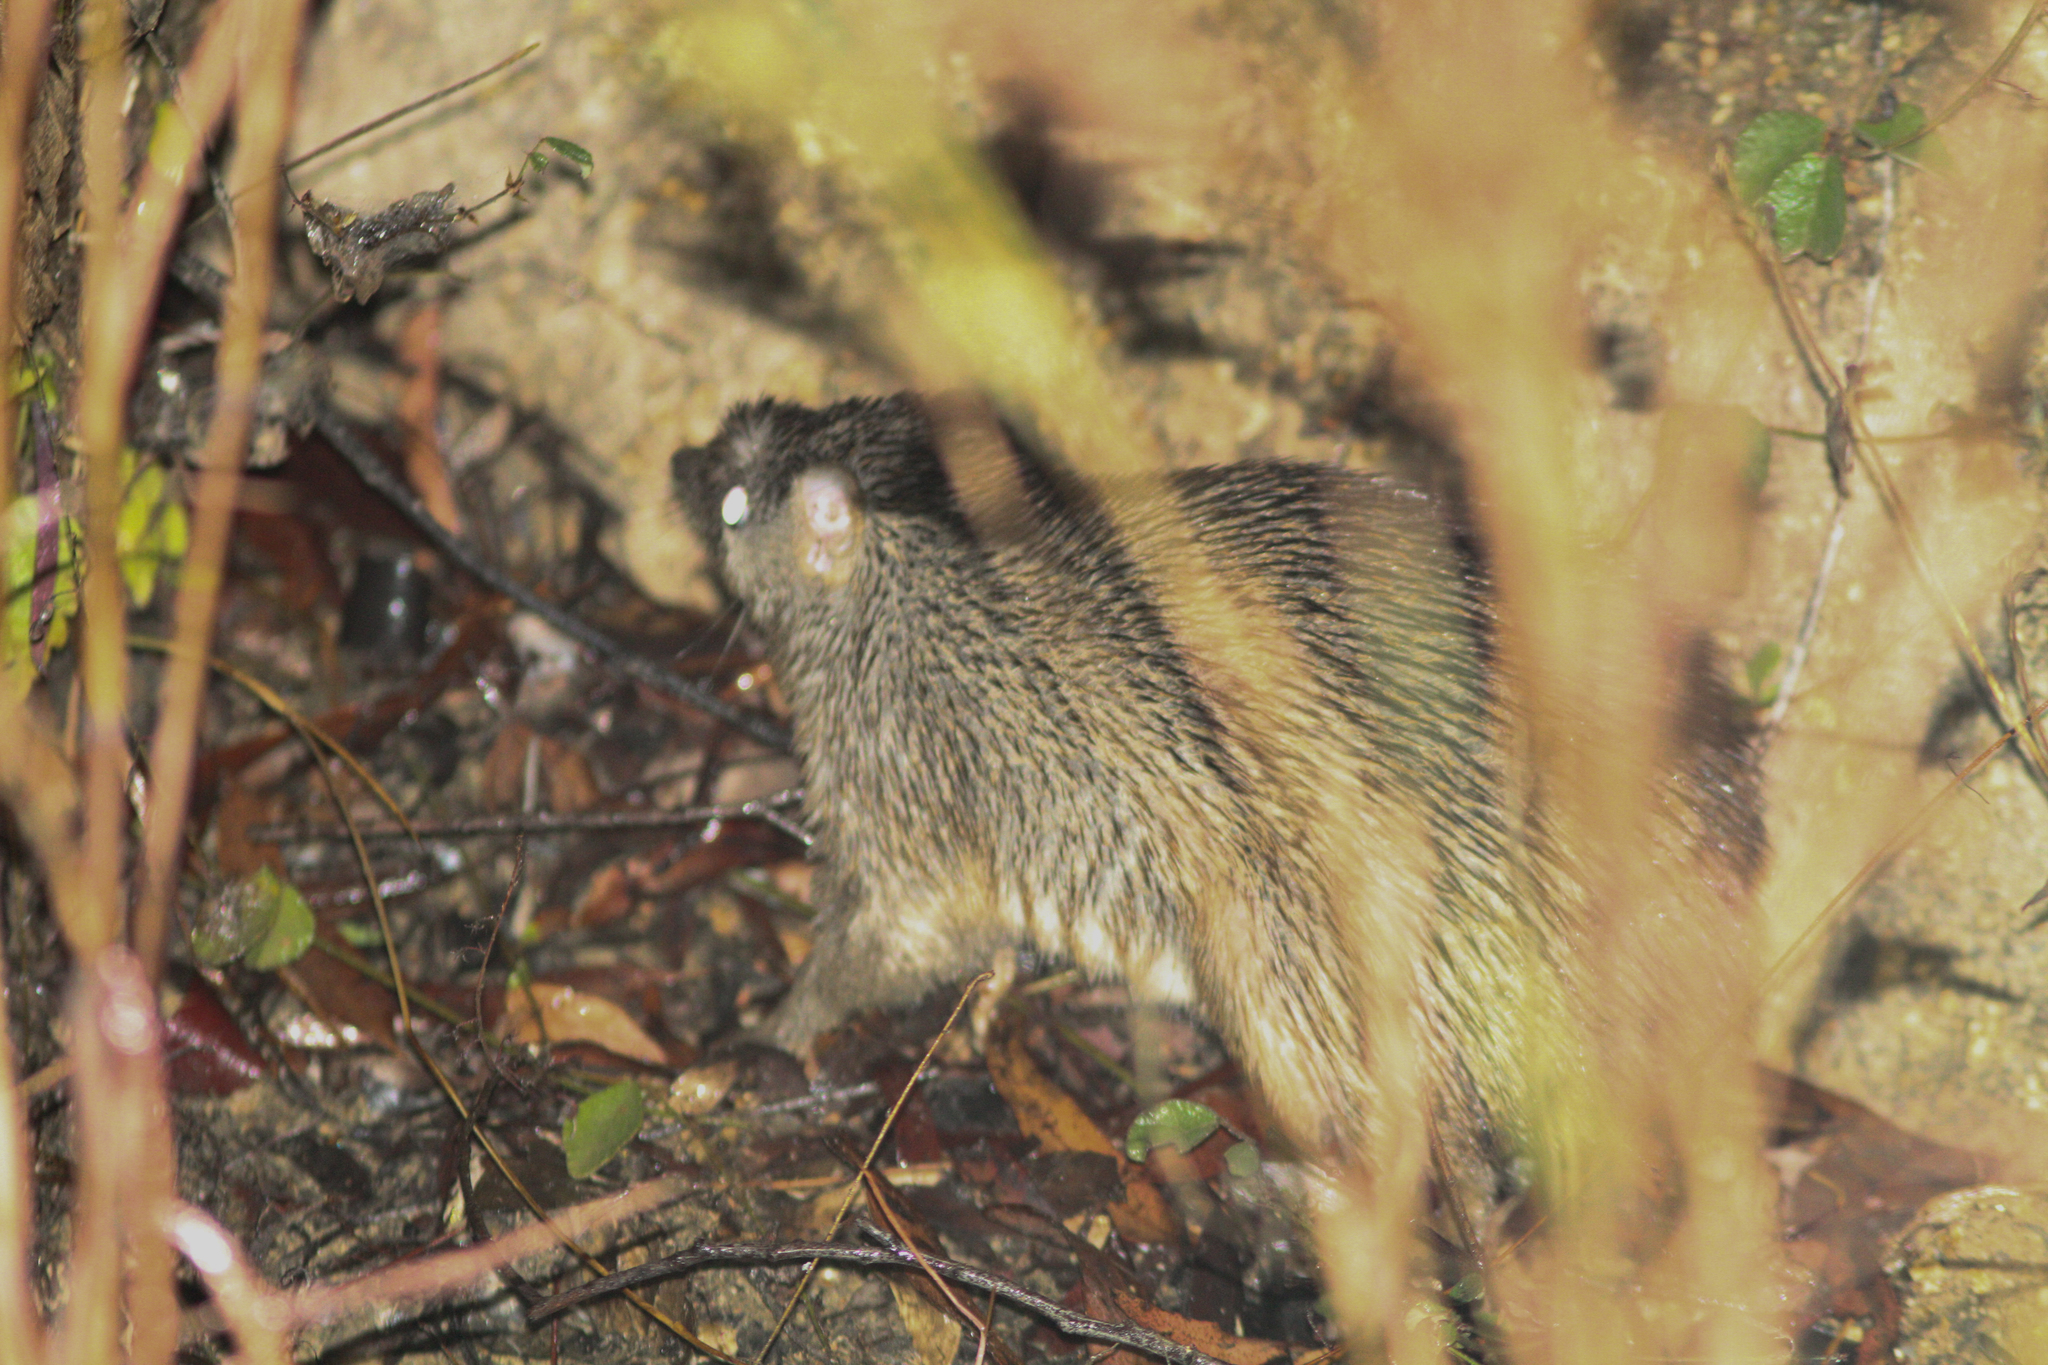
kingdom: Animalia
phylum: Chordata
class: Mammalia
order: Peramelemorphia
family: Peramelidae
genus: Isoodon
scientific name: Isoodon macrourus
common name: Northern brown bandicoot
